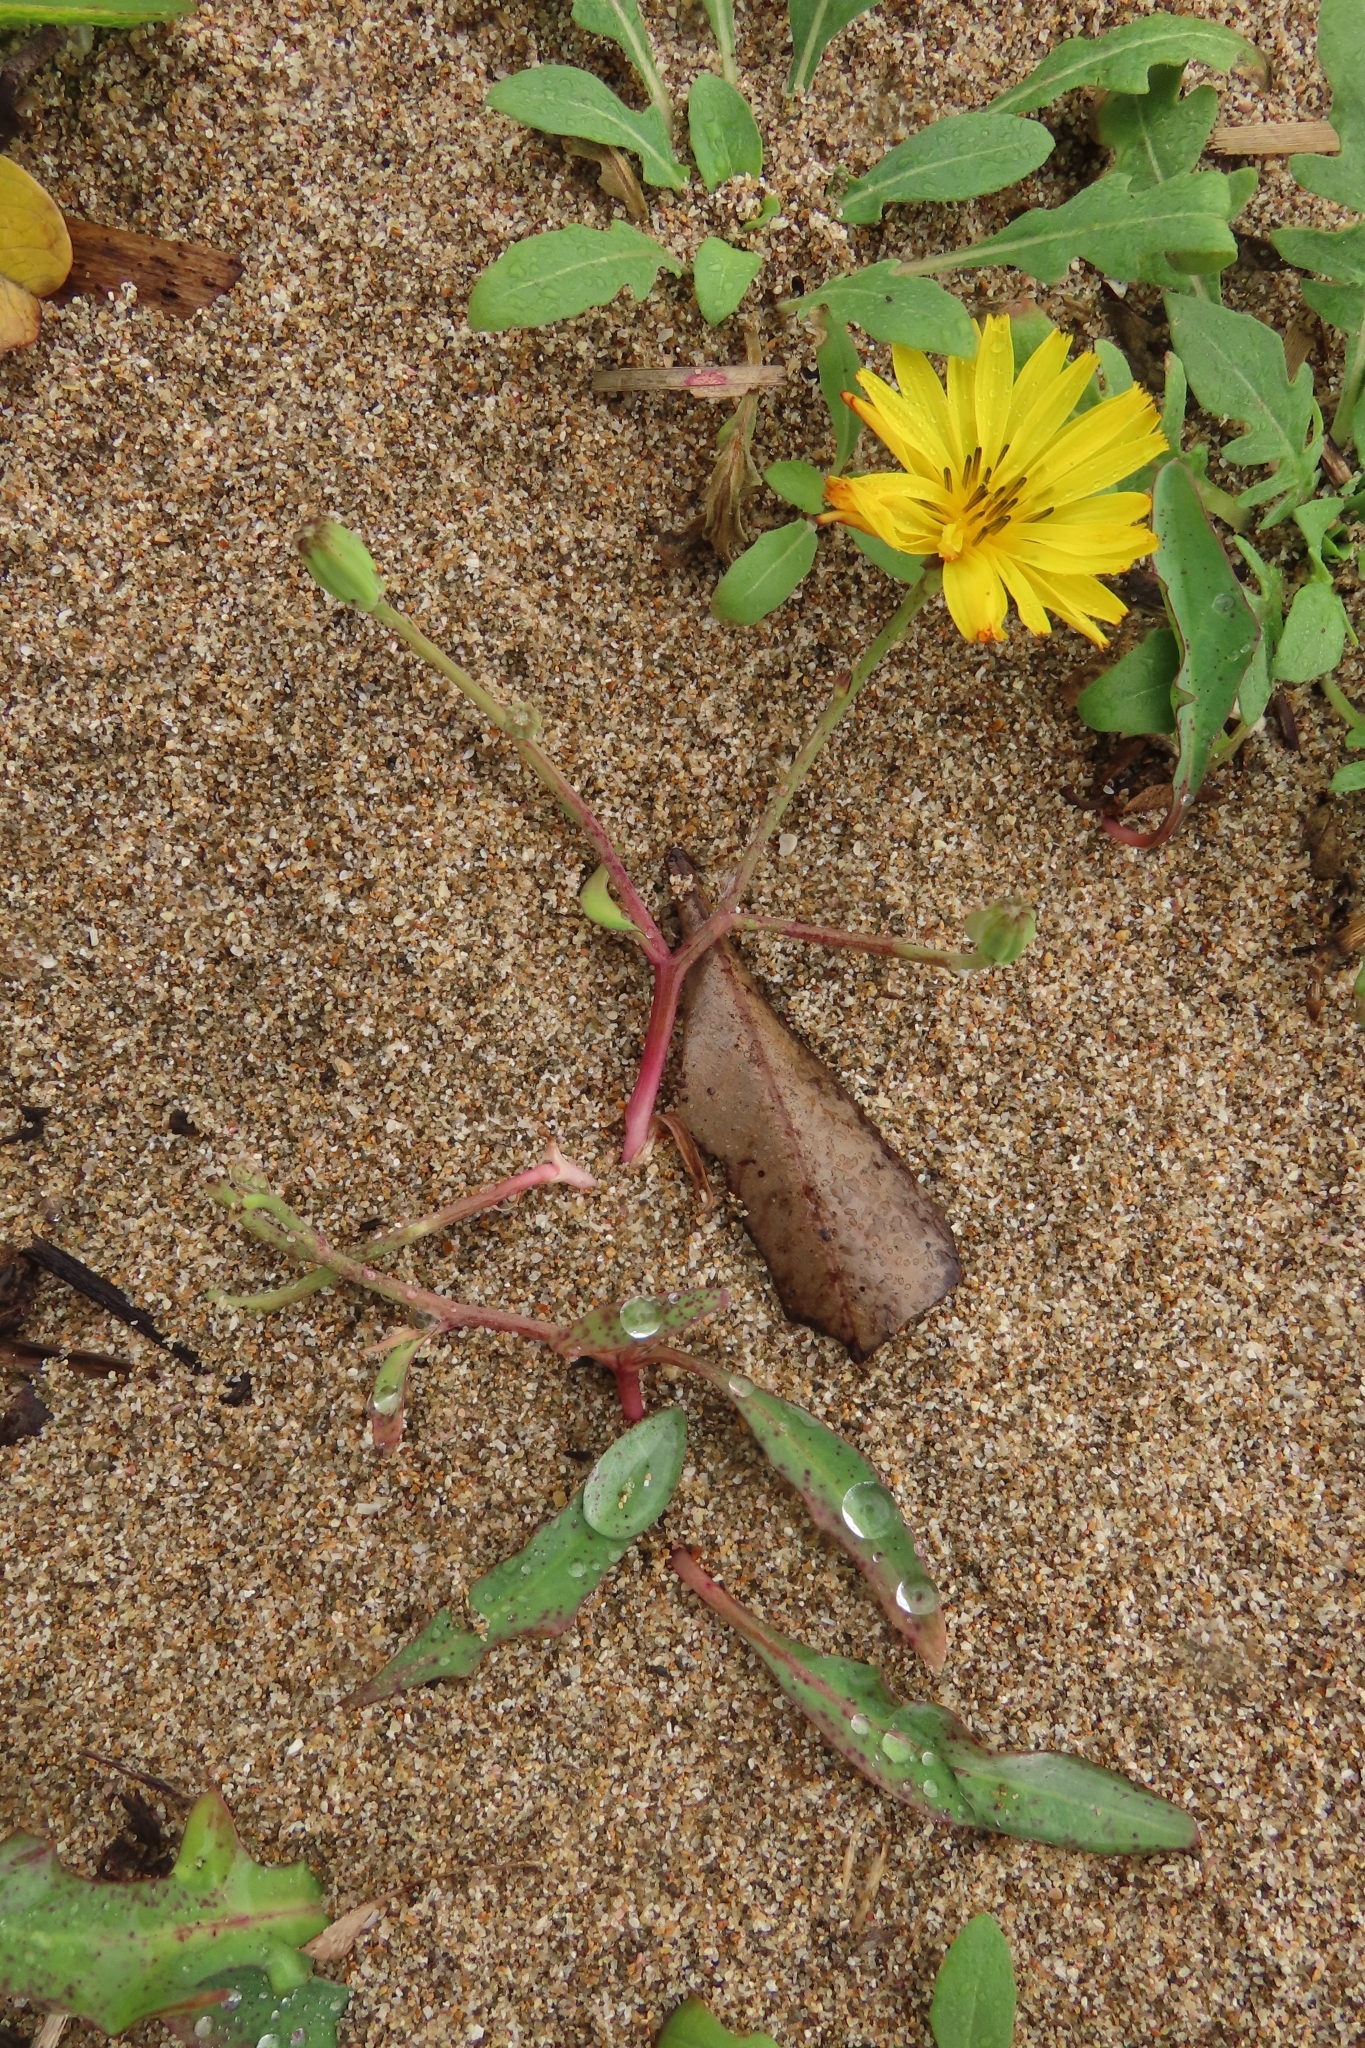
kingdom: Plantae
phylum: Tracheophyta
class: Magnoliopsida
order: Asterales
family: Asteraceae
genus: Ixeris
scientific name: Ixeris japonica
